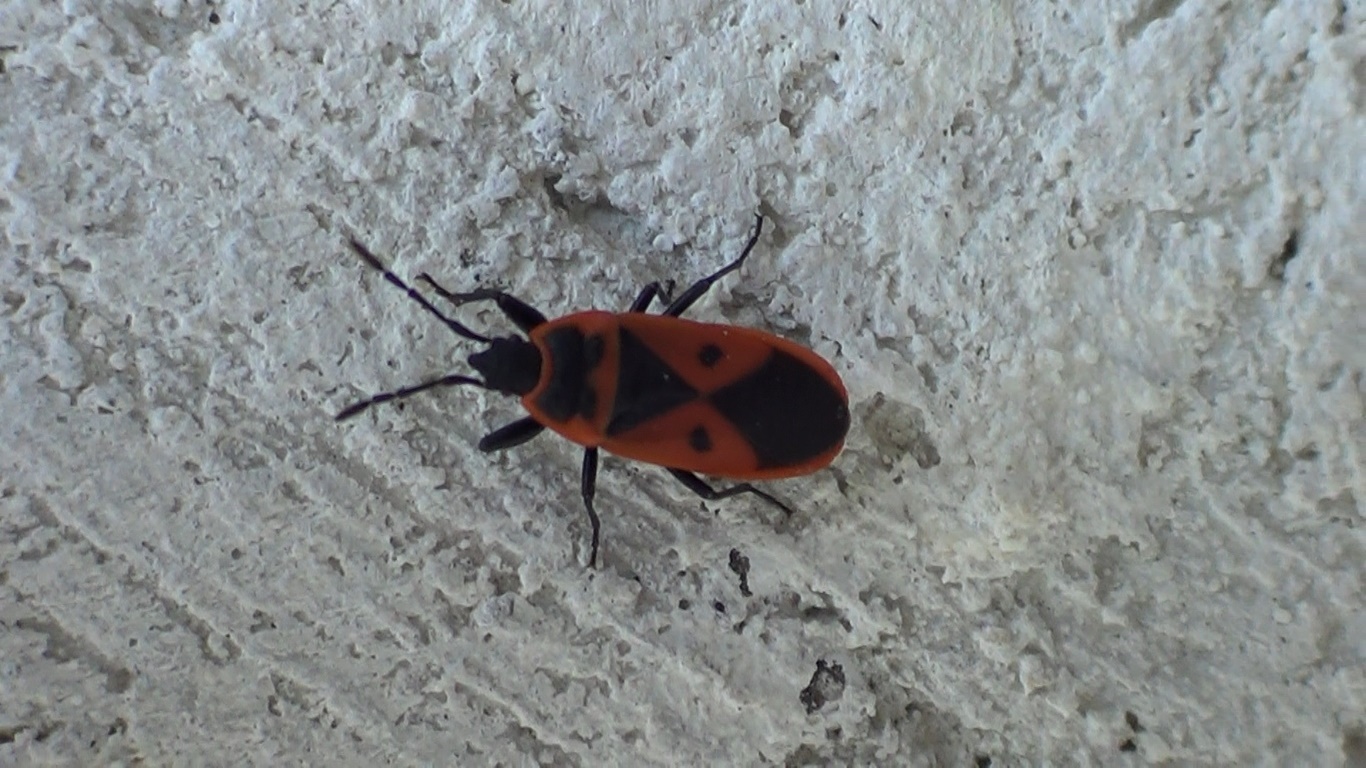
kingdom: Animalia
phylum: Arthropoda
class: Insecta
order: Hemiptera
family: Pyrrhocoridae
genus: Scantius
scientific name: Scantius aegyptius
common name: Red bug
